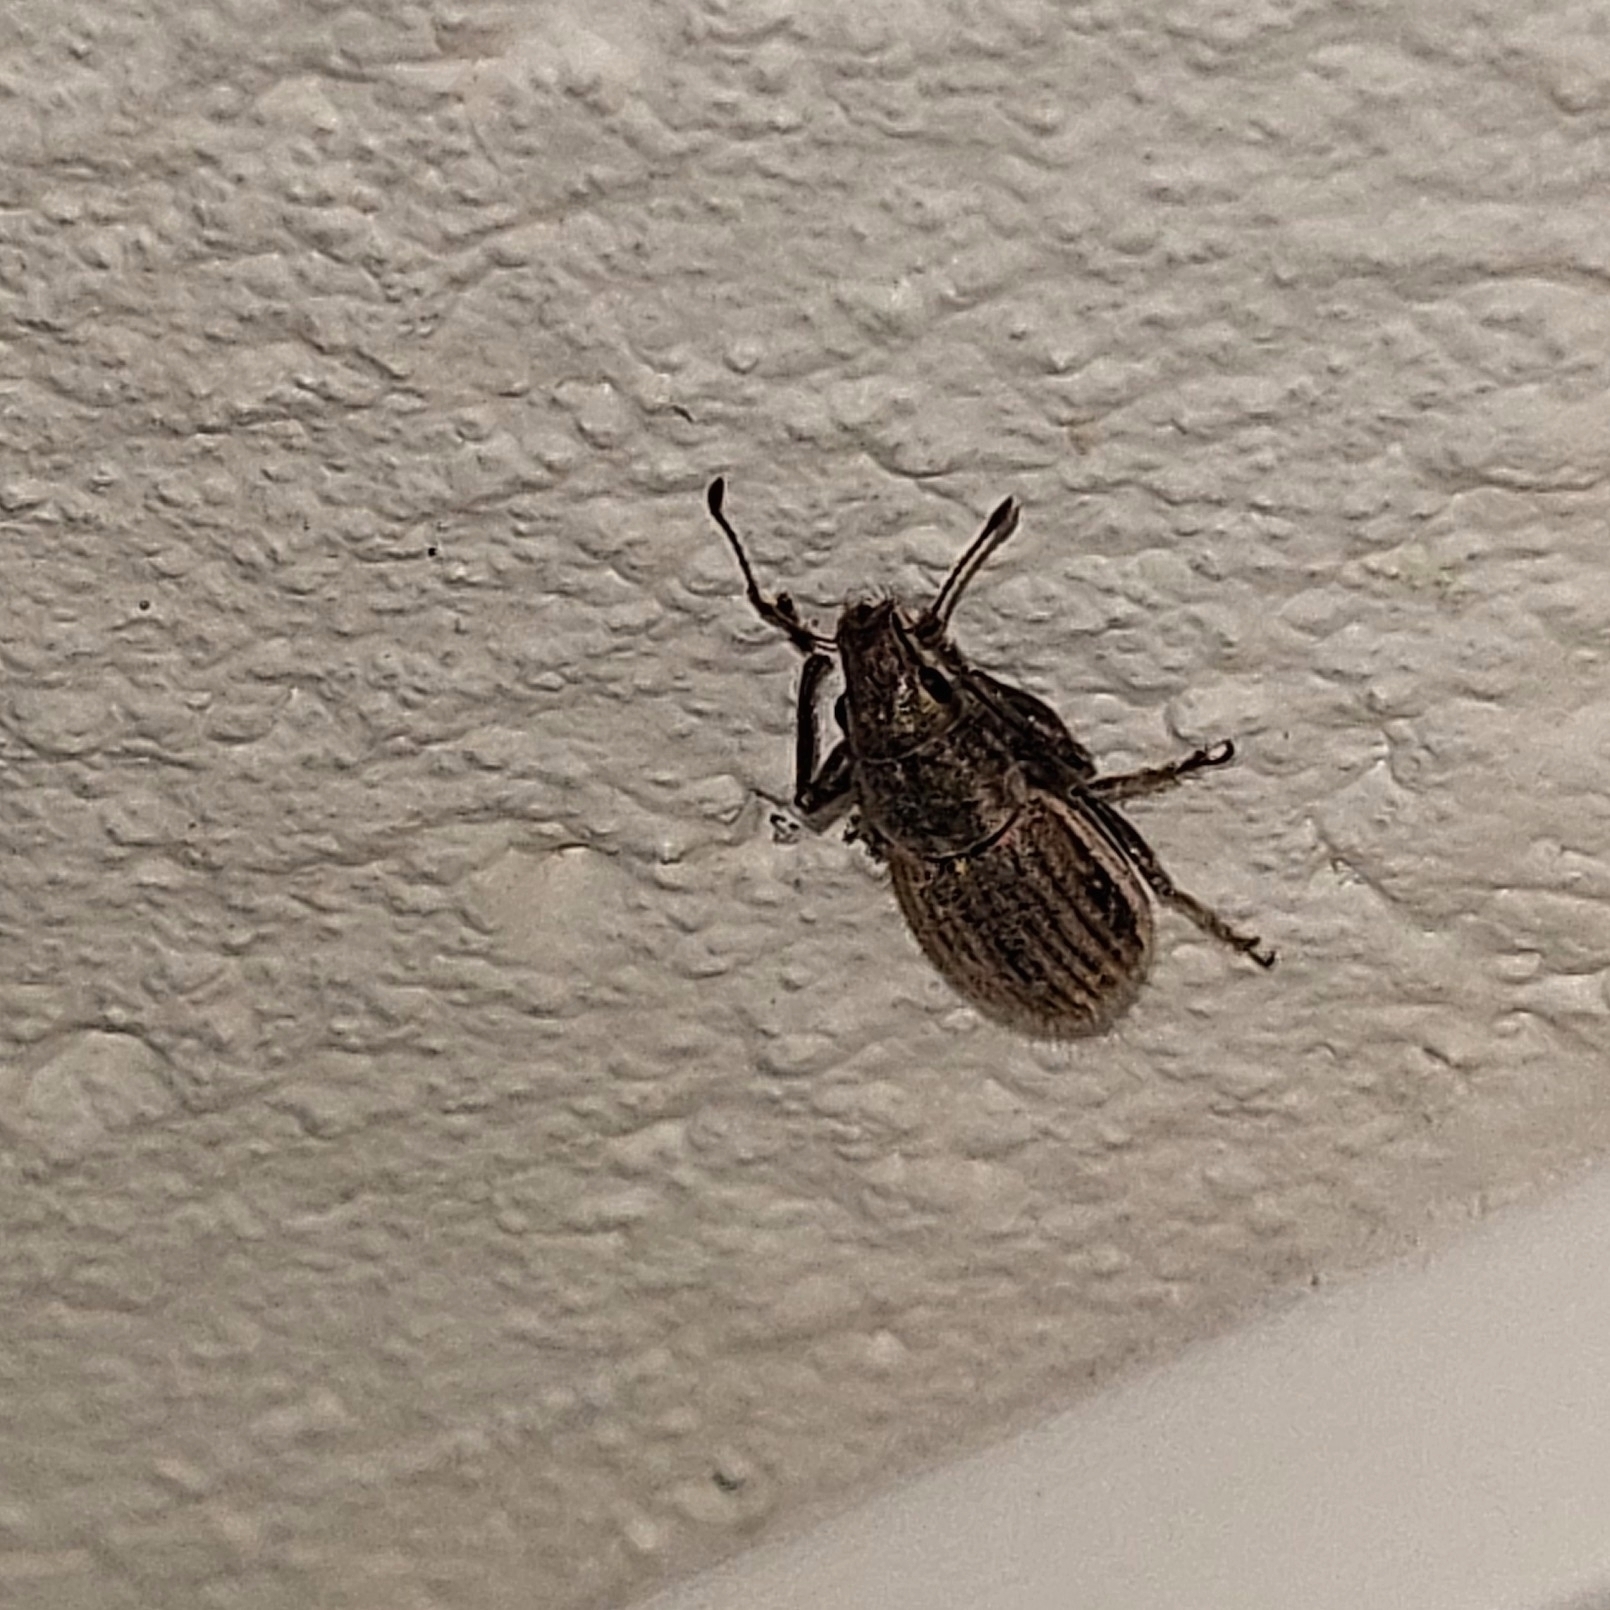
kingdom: Animalia
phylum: Arthropoda
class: Insecta
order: Coleoptera
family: Curculionidae
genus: Naupactus
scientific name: Naupactus leucoloma
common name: Whitefringed beetle
